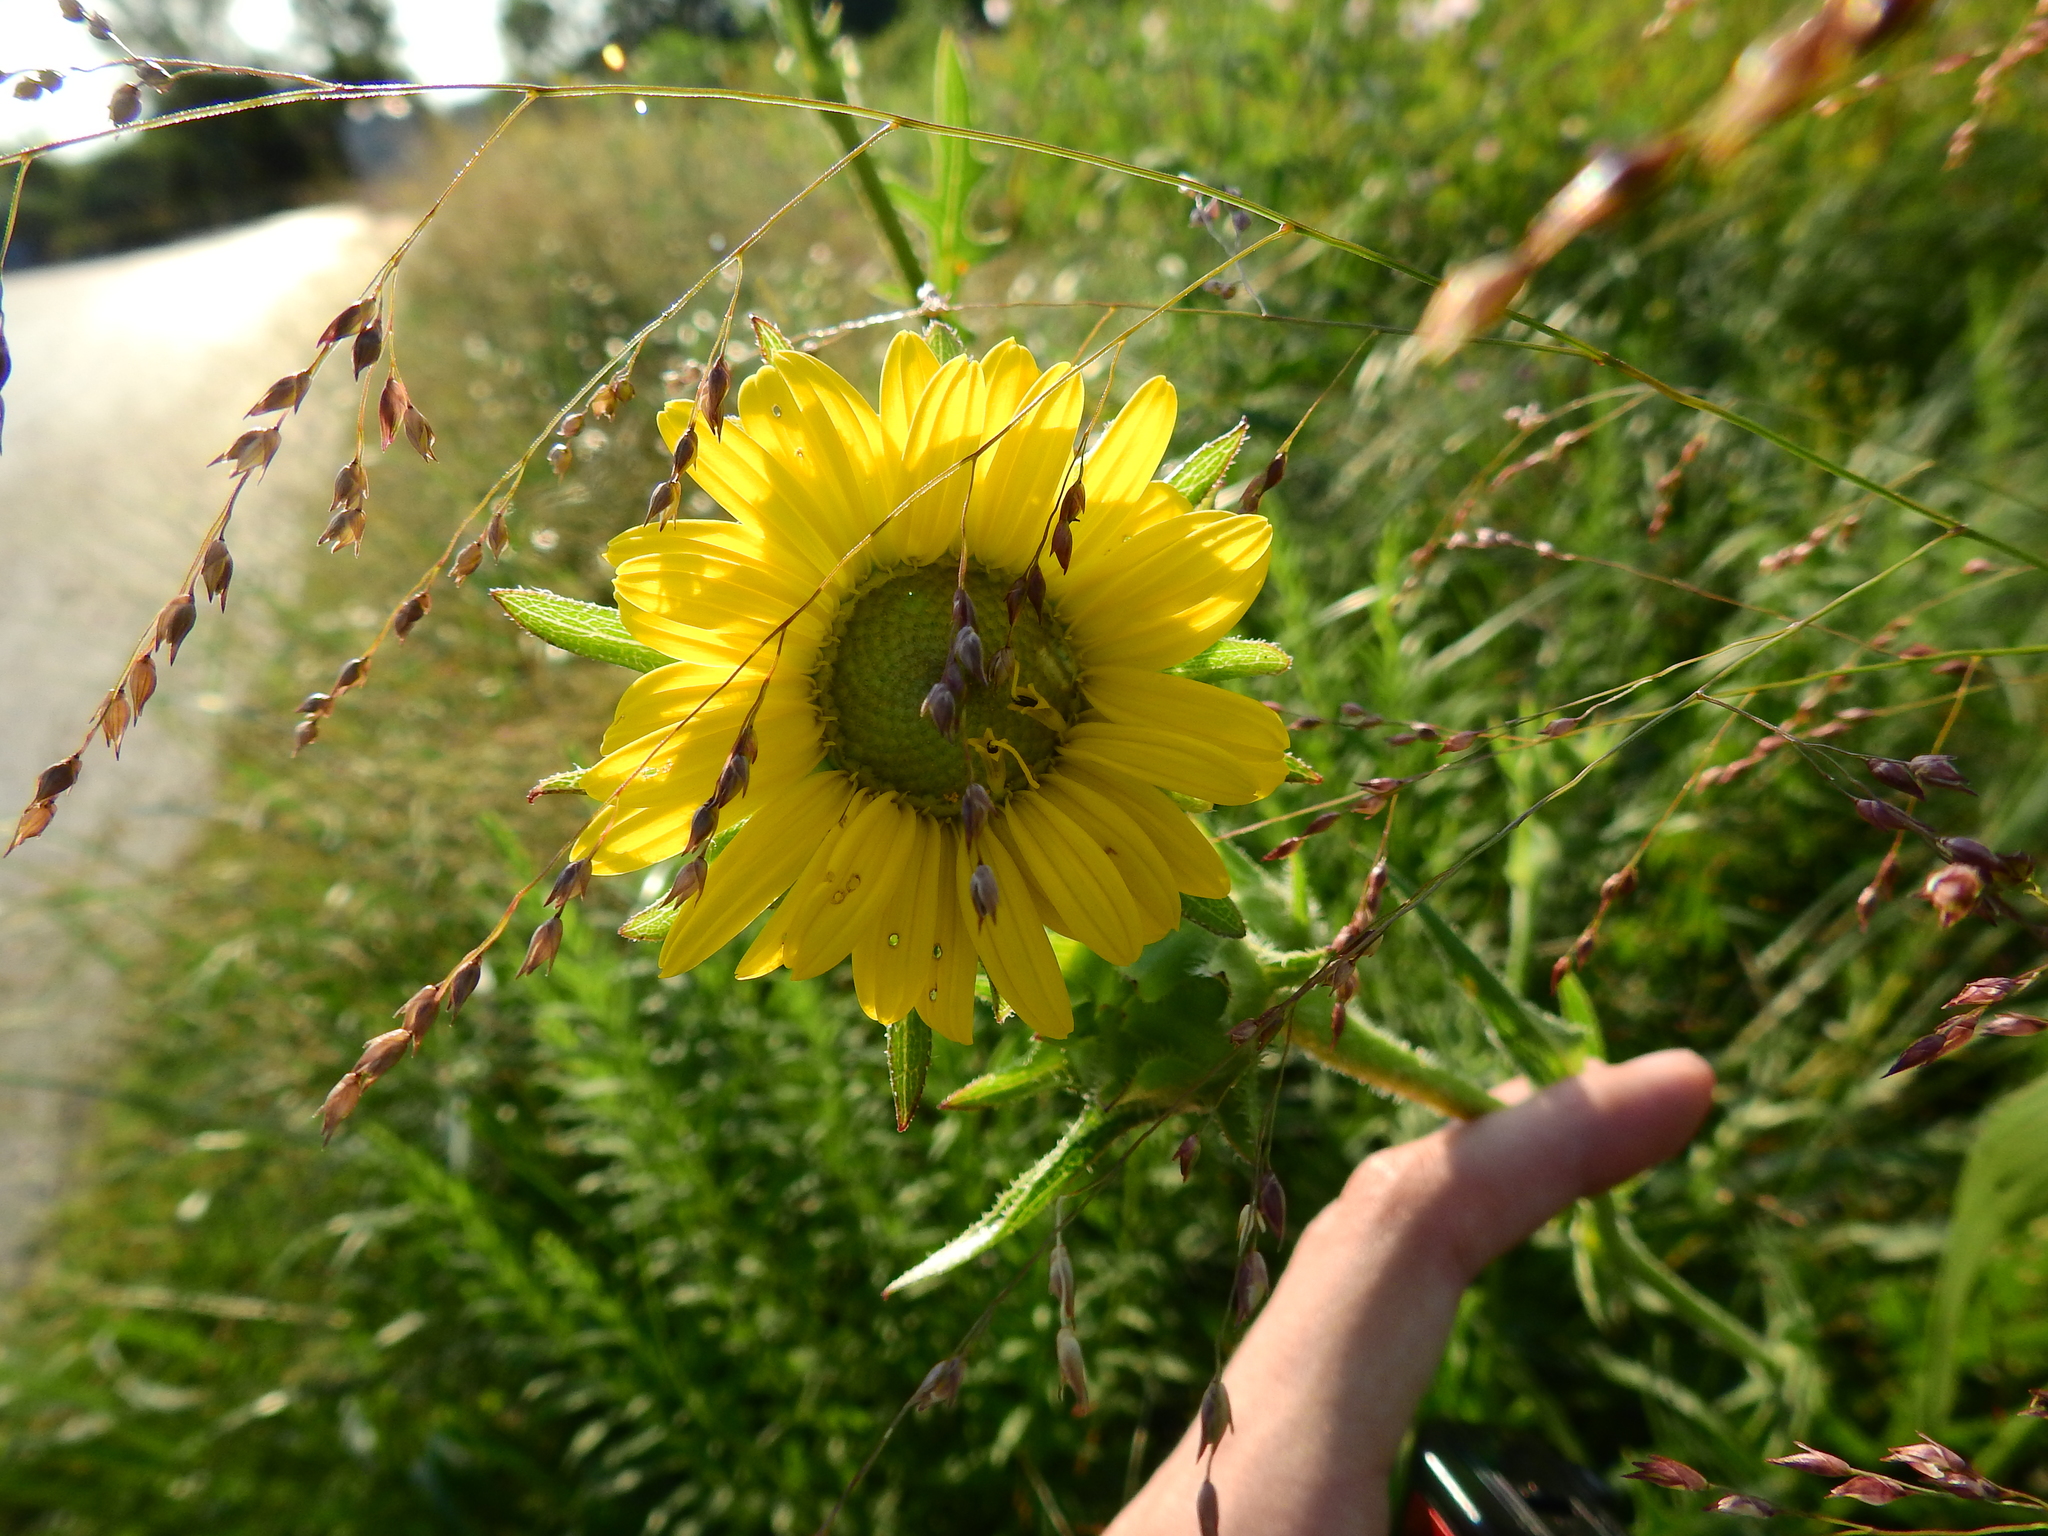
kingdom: Plantae
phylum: Tracheophyta
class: Magnoliopsida
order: Asterales
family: Asteraceae
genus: Silphium
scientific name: Silphium laciniatum
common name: Polarplant
